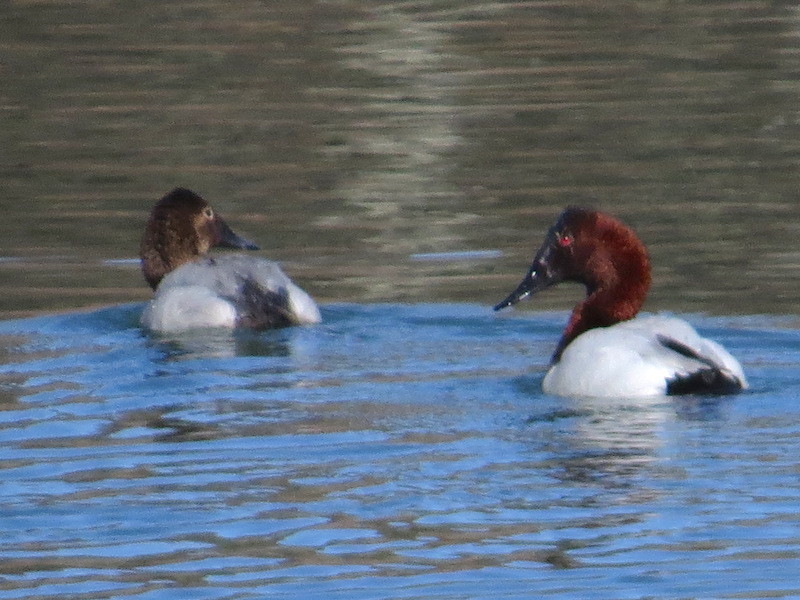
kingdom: Animalia
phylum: Chordata
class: Aves
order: Anseriformes
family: Anatidae
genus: Aythya
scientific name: Aythya valisineria
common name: Canvasback
